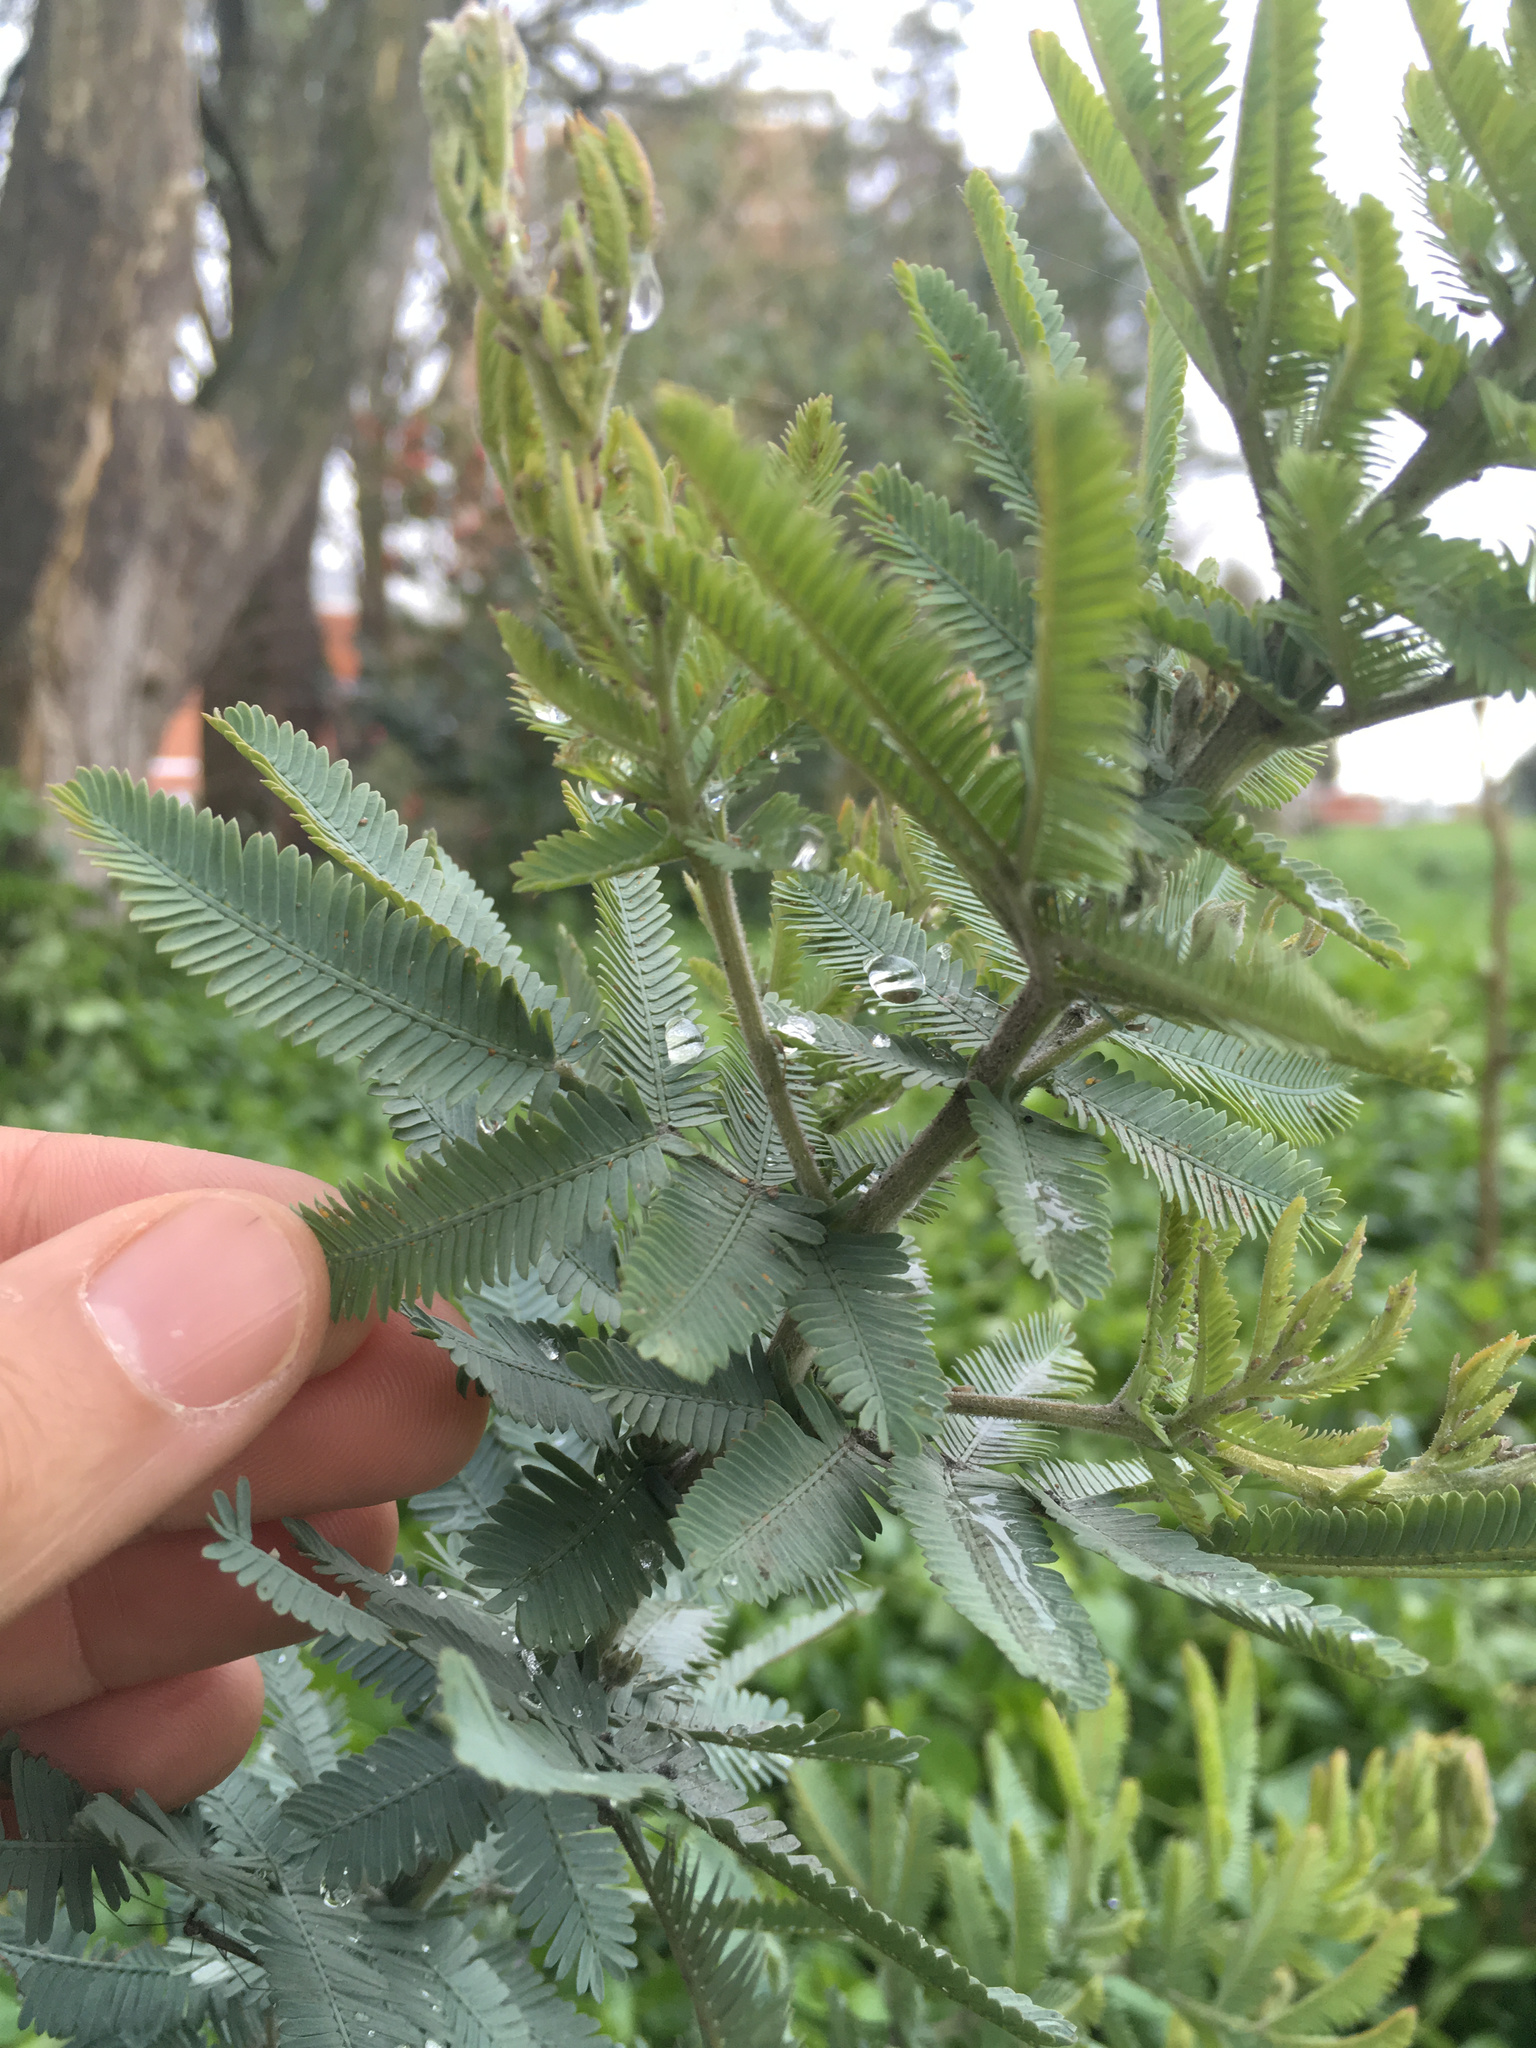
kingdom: Plantae
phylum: Tracheophyta
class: Magnoliopsida
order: Fabales
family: Fabaceae
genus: Acacia
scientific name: Acacia baileyana
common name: Cootamundra wattle
